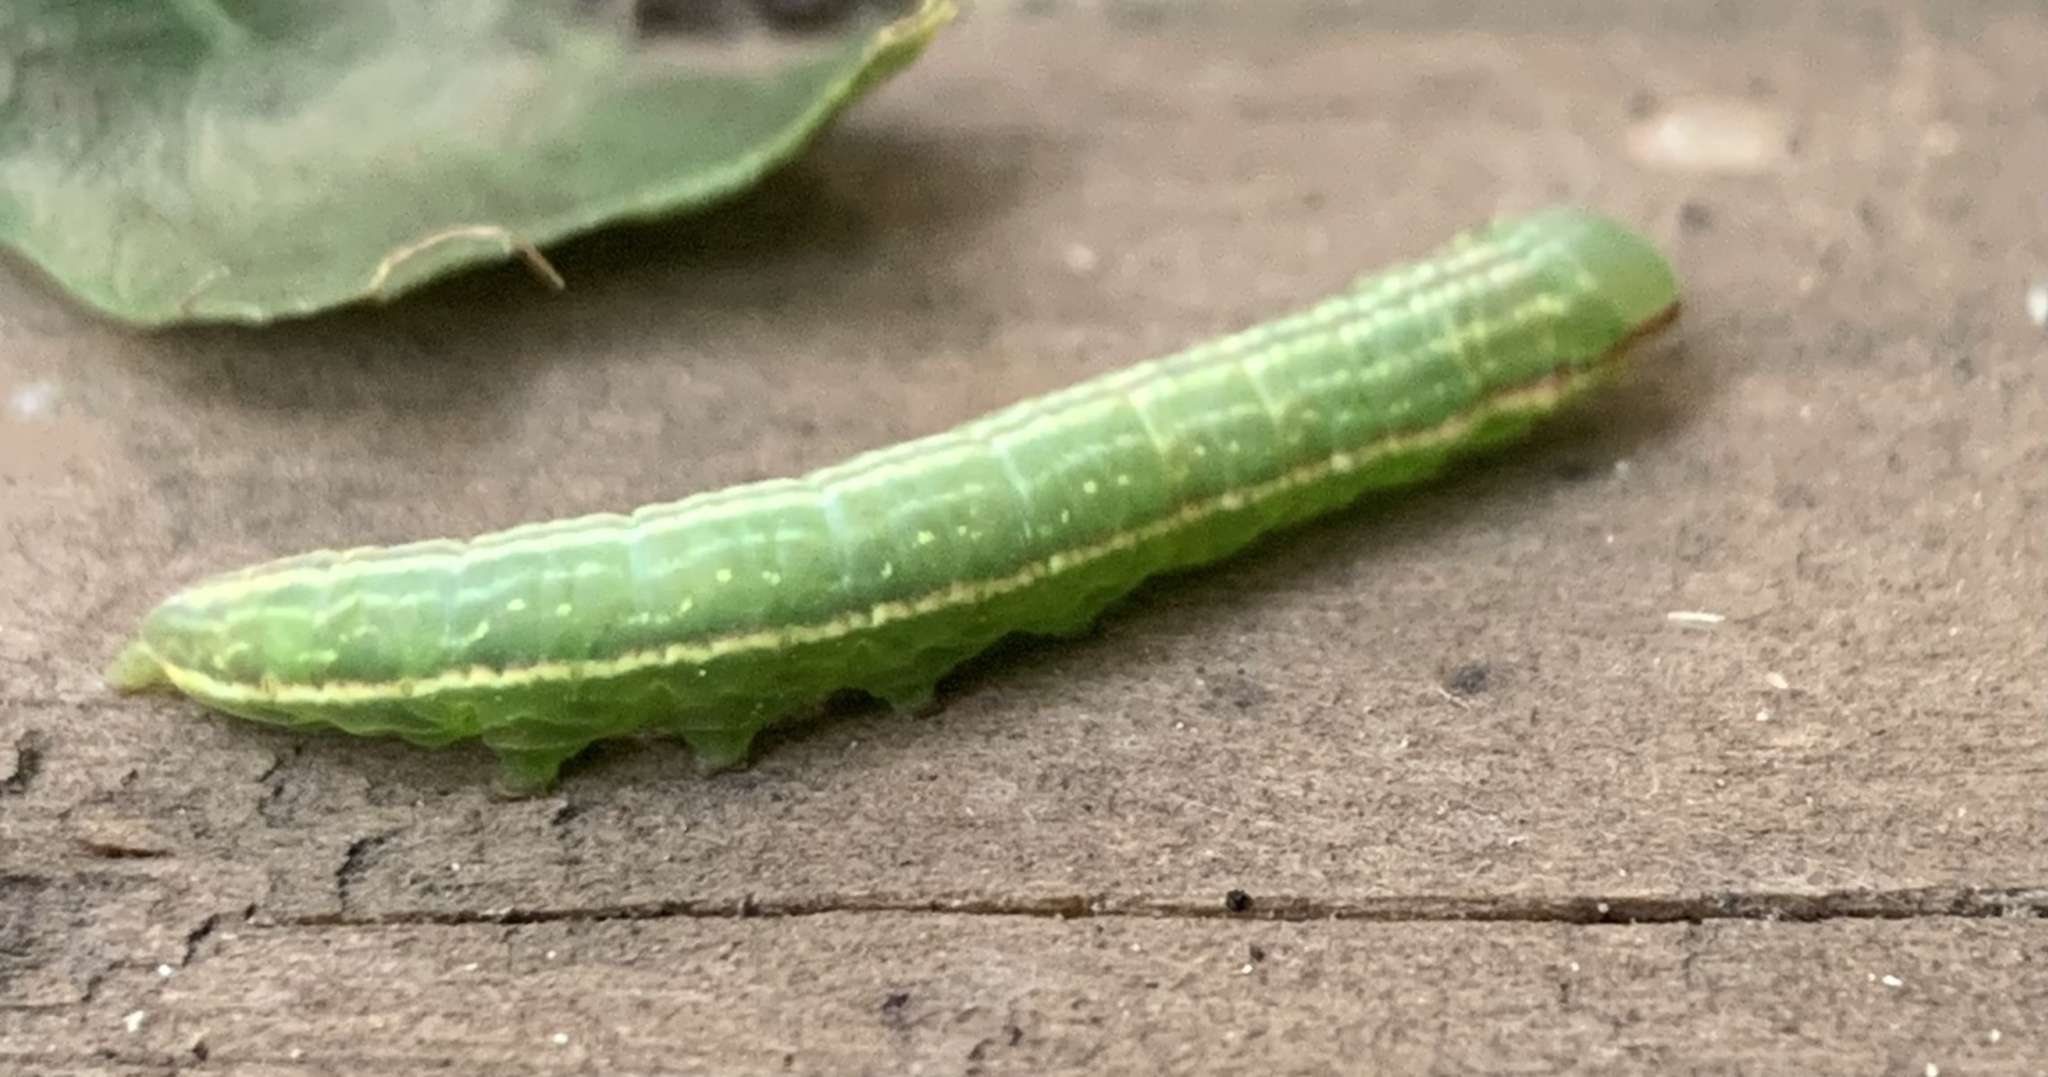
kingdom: Animalia
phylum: Arthropoda
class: Insecta
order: Lepidoptera
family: Notodontidae
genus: Peridea
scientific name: Peridea angulosa
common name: Angulose prominent
